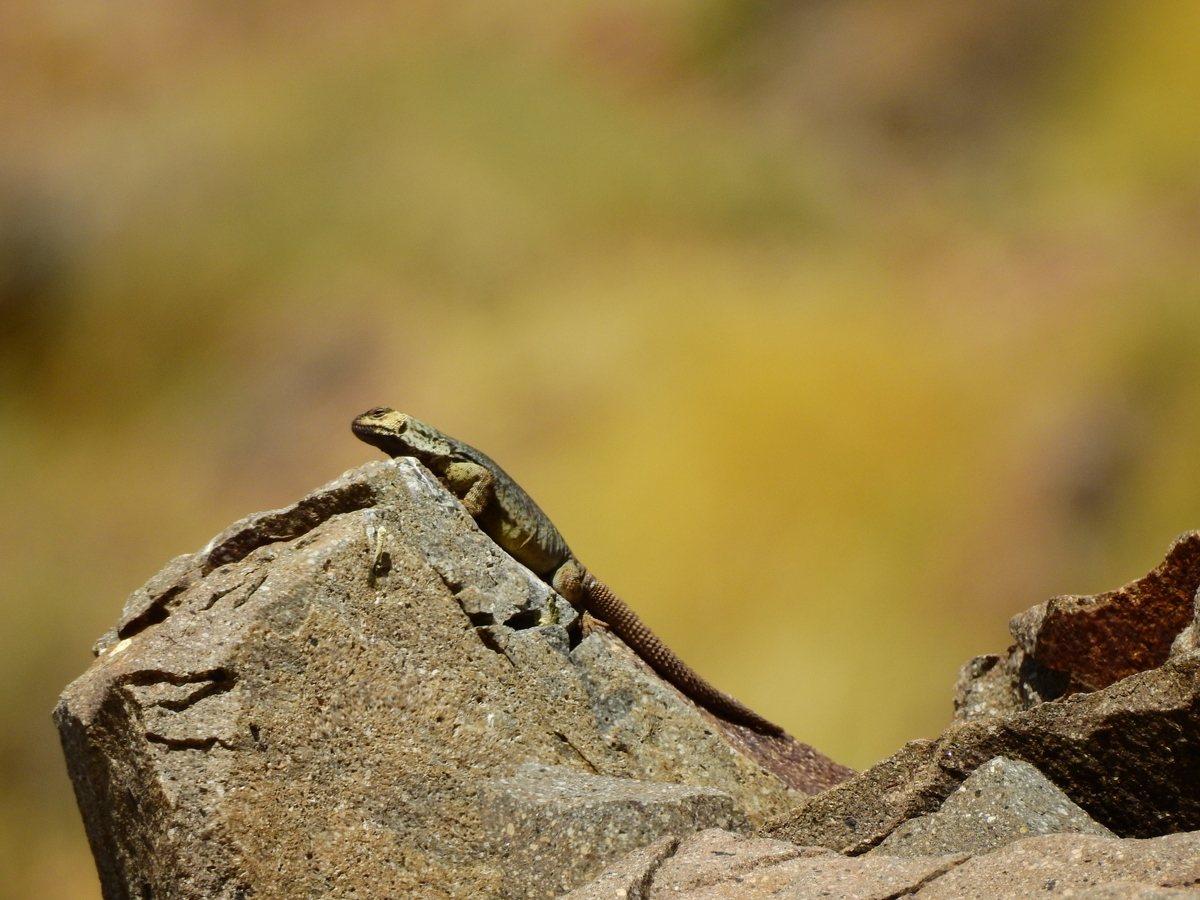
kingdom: Animalia
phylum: Chordata
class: Squamata
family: Liolaemidae
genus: Phymaturus
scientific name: Phymaturus verdugo
